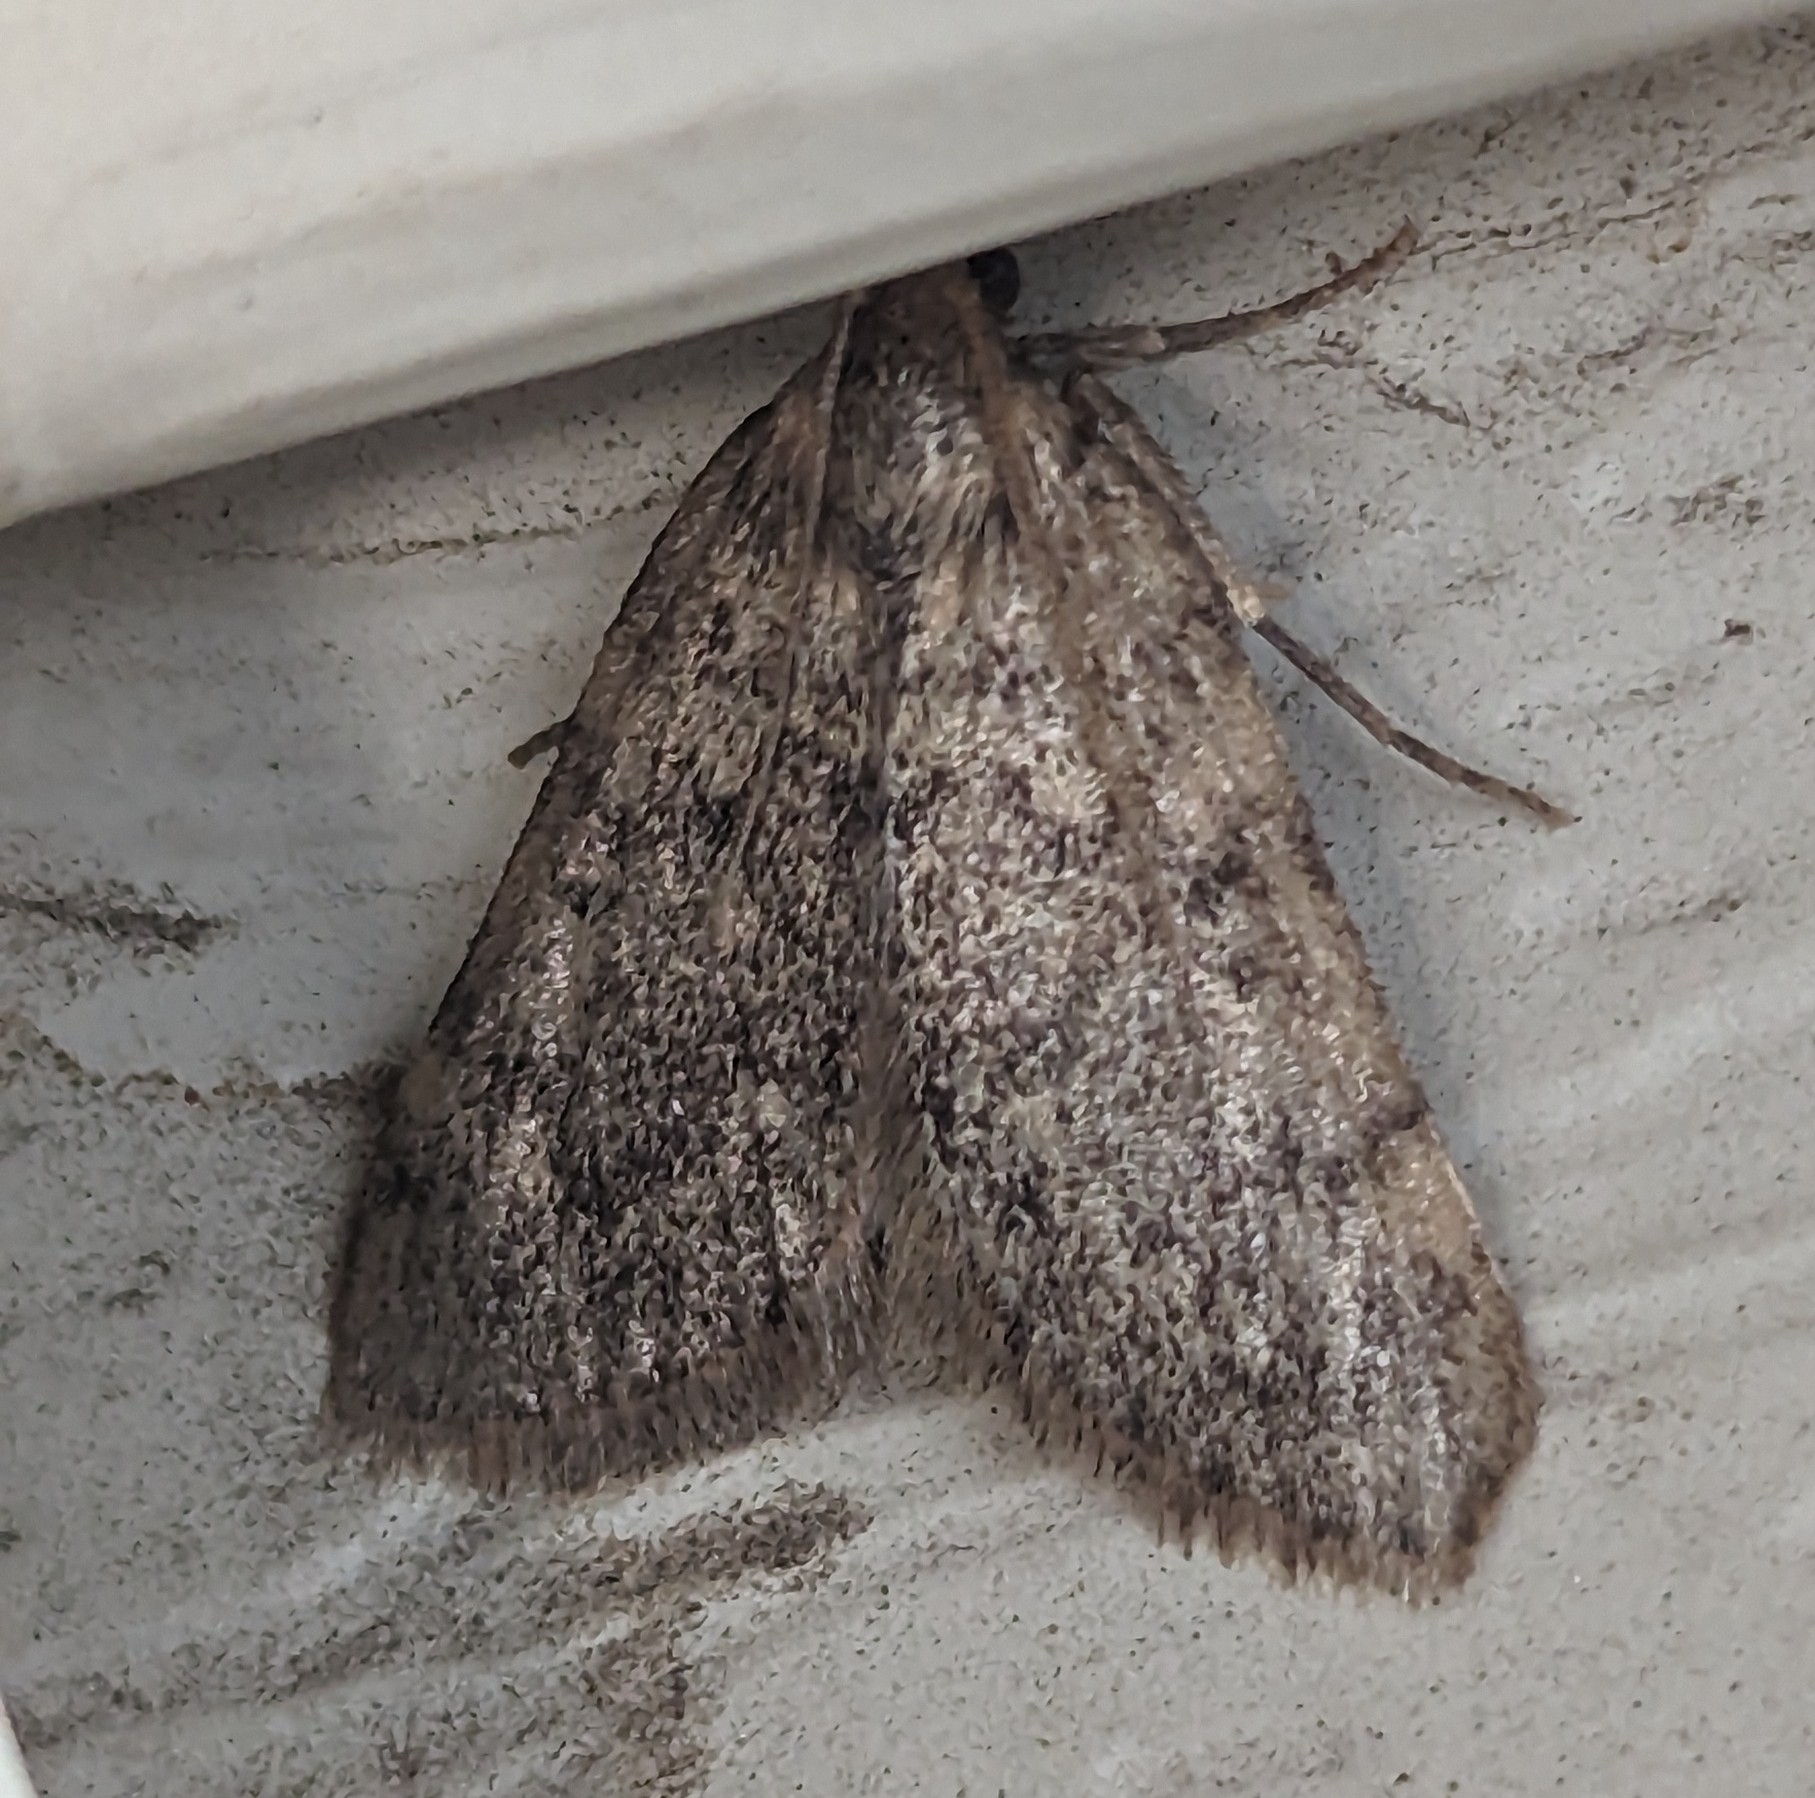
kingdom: Animalia
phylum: Arthropoda
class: Insecta
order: Lepidoptera
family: Pyralidae
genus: Aglossa
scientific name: Aglossa pinguinalis
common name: Large tabby
